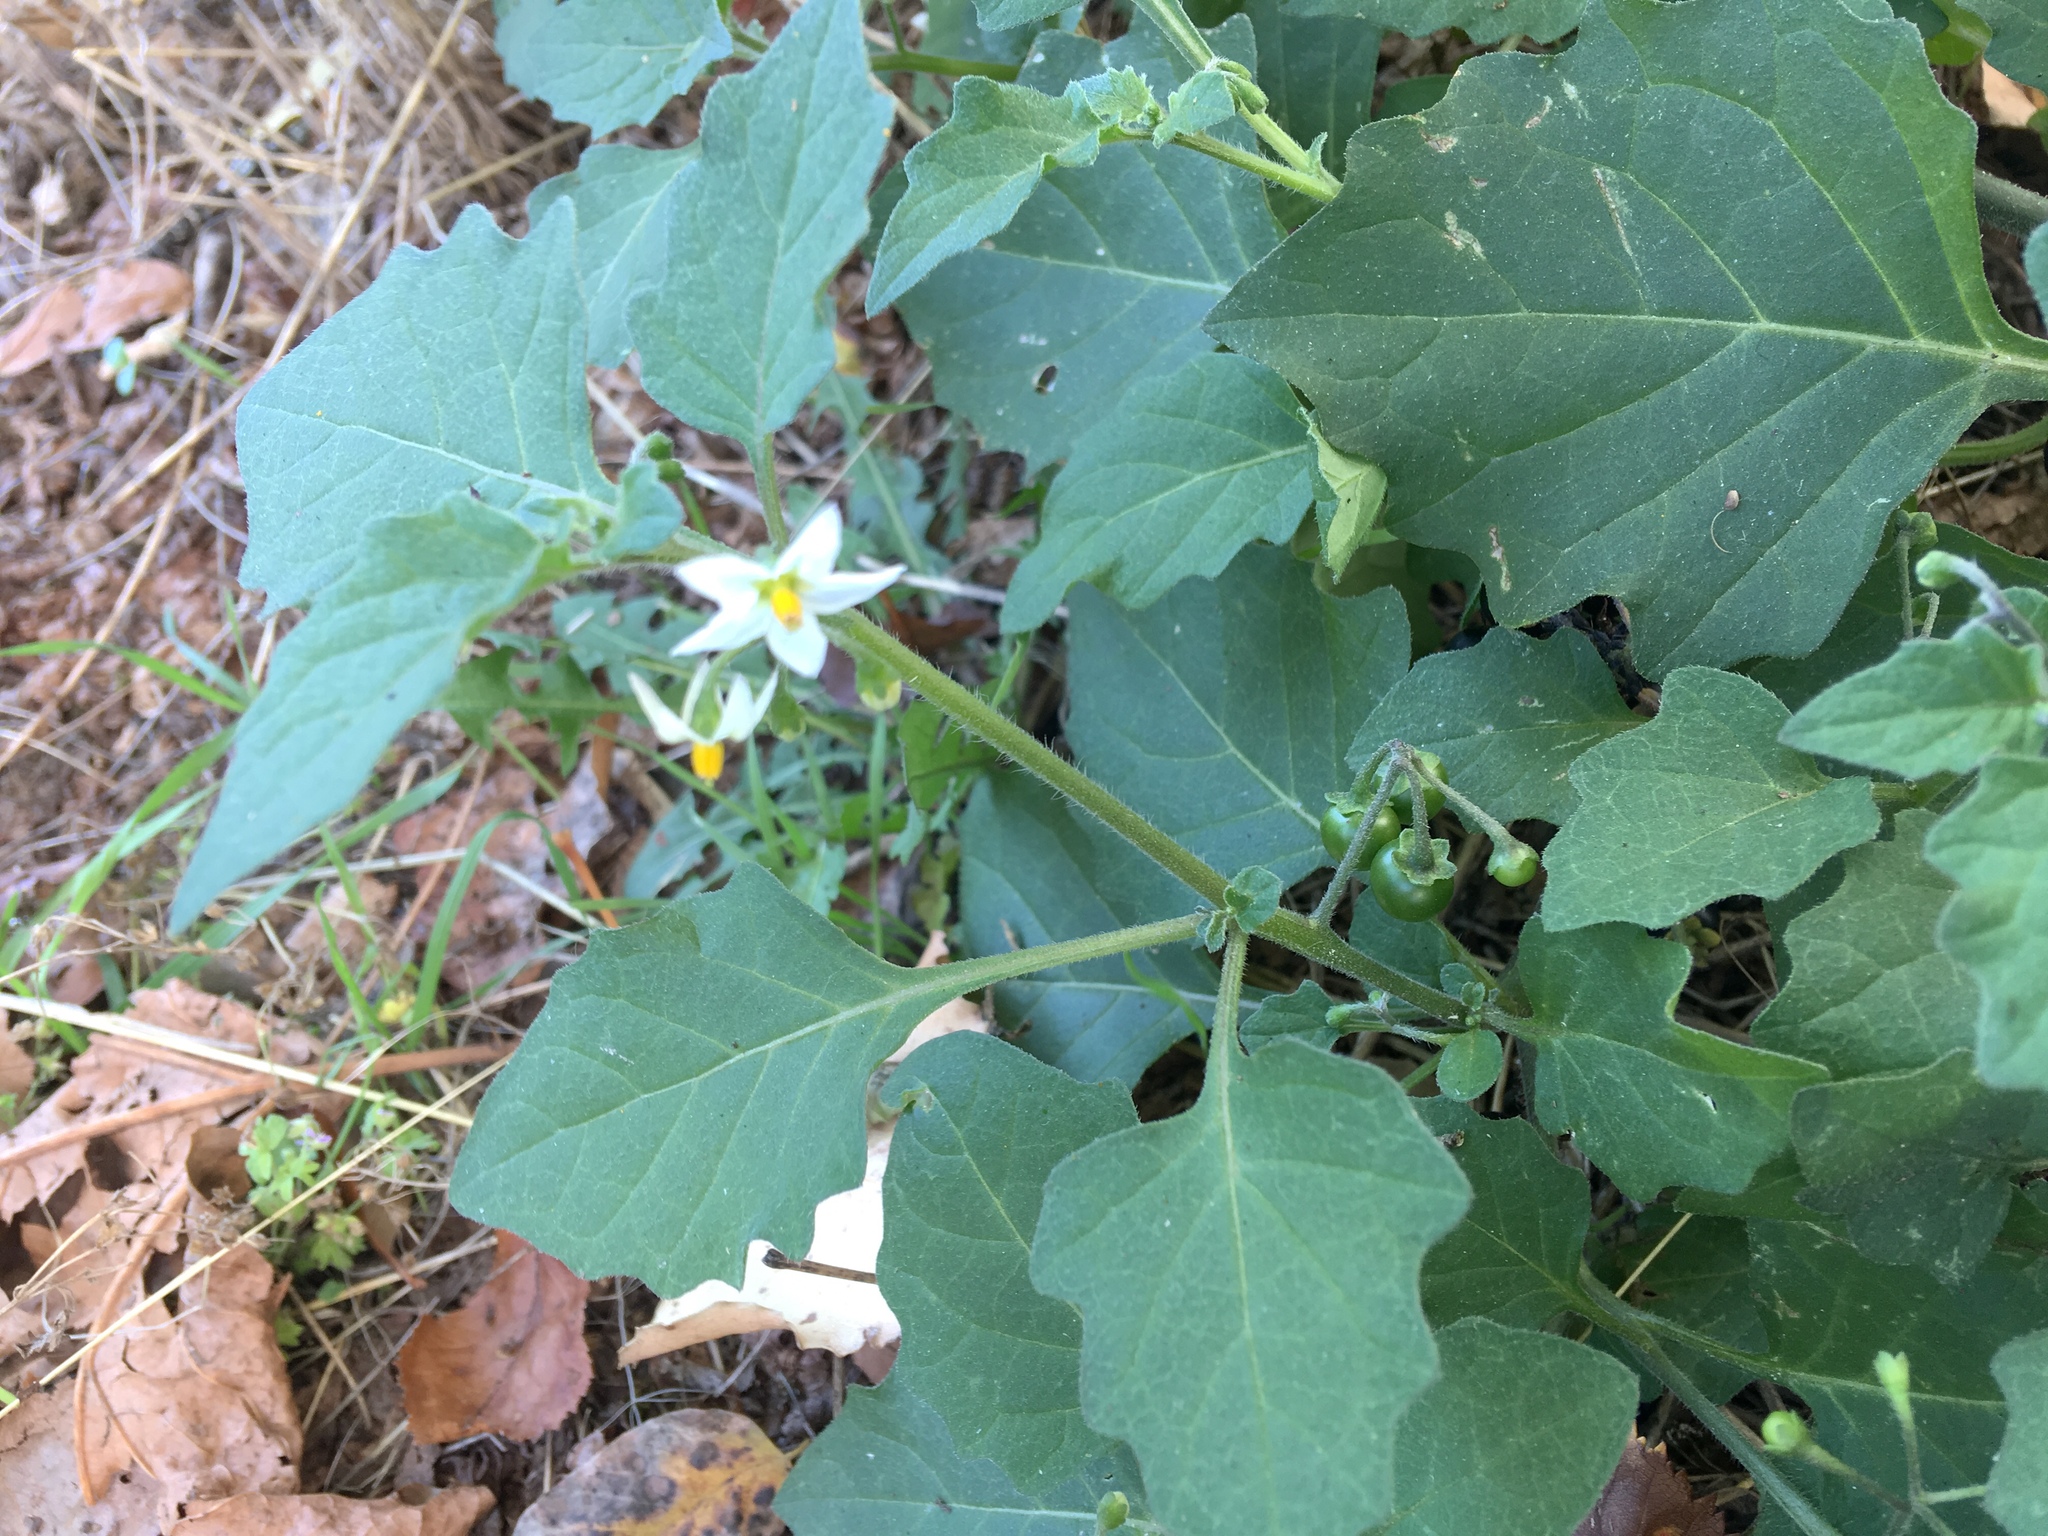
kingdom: Plantae
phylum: Tracheophyta
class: Magnoliopsida
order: Solanales
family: Solanaceae
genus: Solanum
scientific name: Solanum nigrum
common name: Black nightshade
